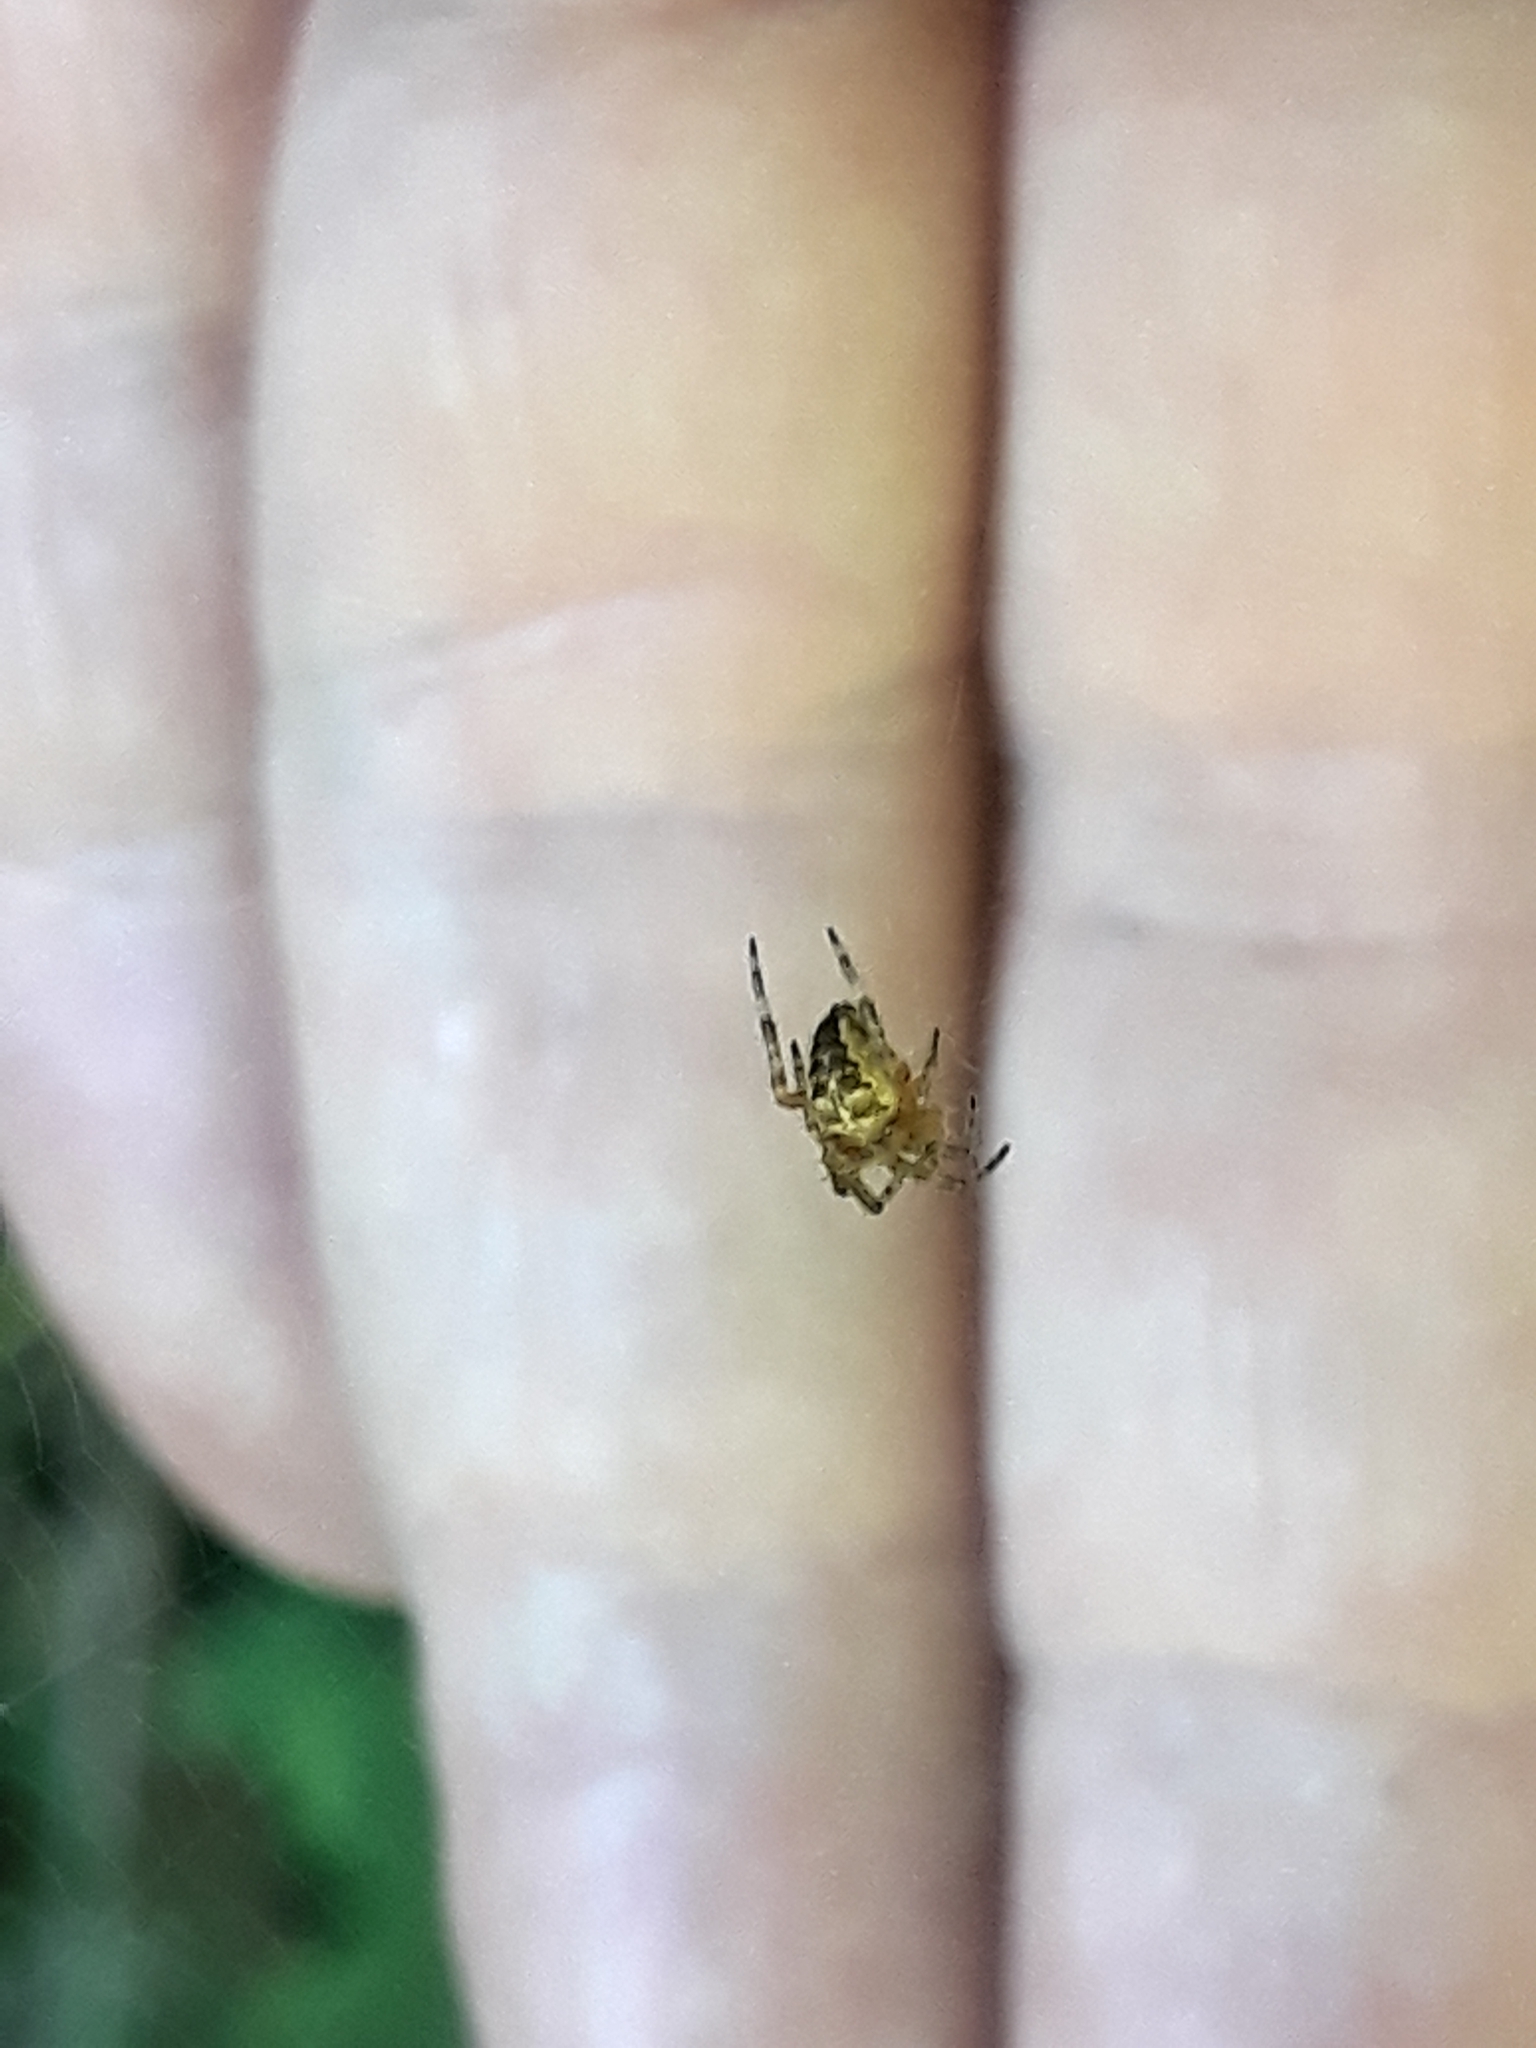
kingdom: Animalia
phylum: Arthropoda
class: Arachnida
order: Araneae
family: Araneidae
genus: Araneus
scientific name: Araneus diadematus
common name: Cross orbweaver
